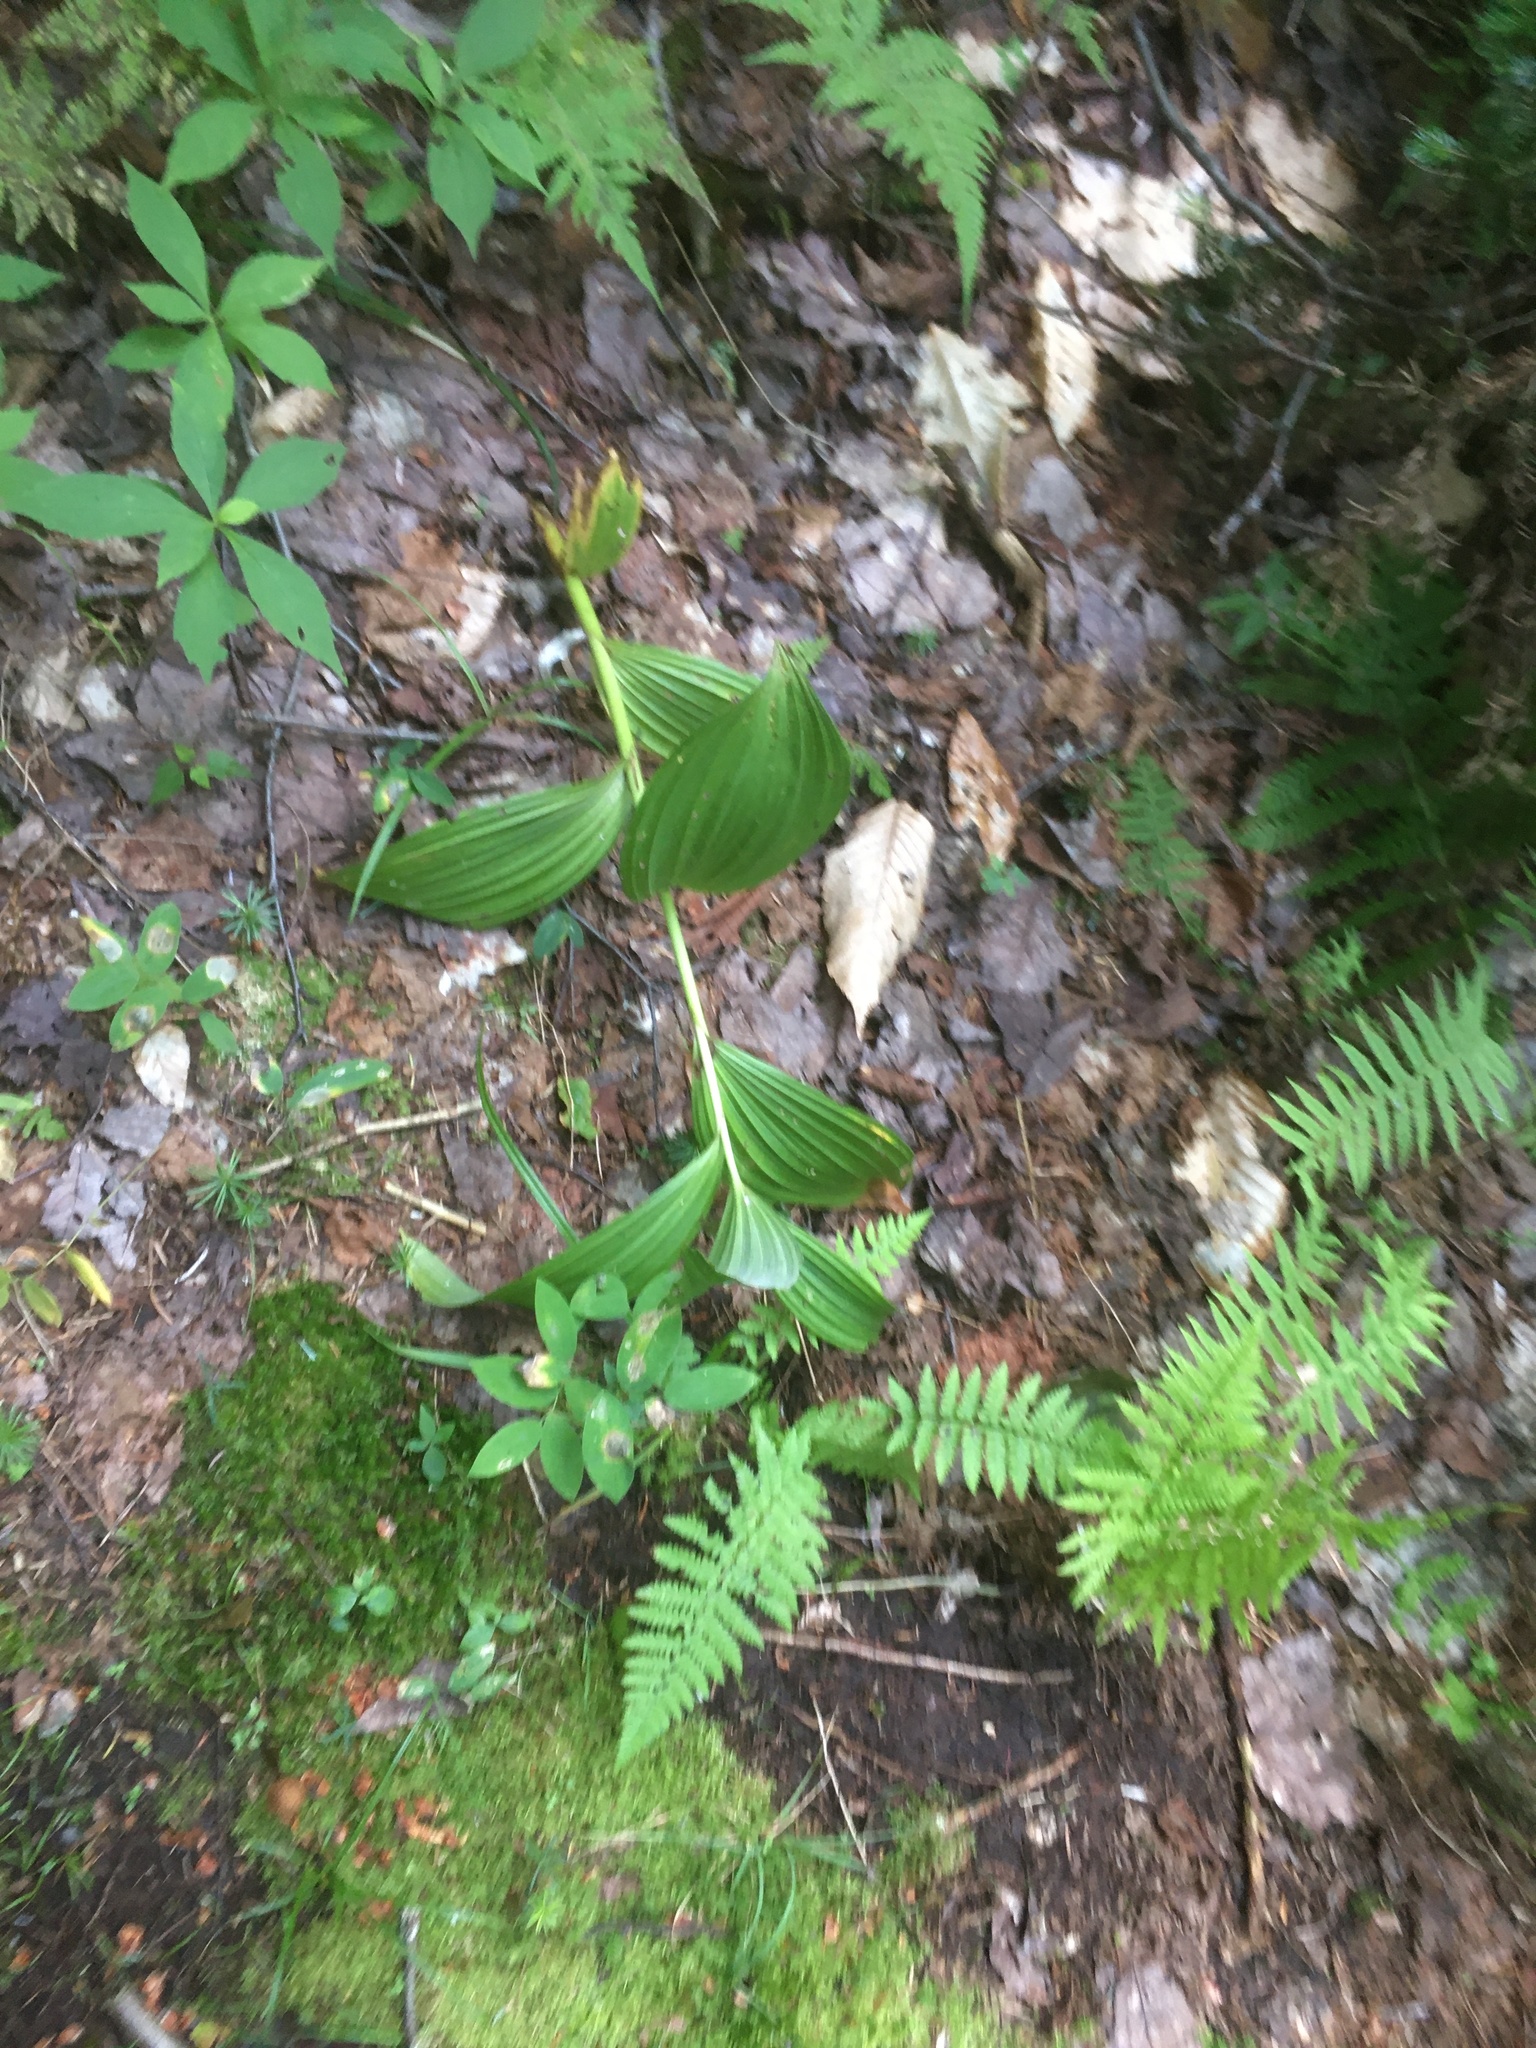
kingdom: Plantae
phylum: Tracheophyta
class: Liliopsida
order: Liliales
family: Melanthiaceae
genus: Veratrum
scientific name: Veratrum viride
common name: American false hellebore
